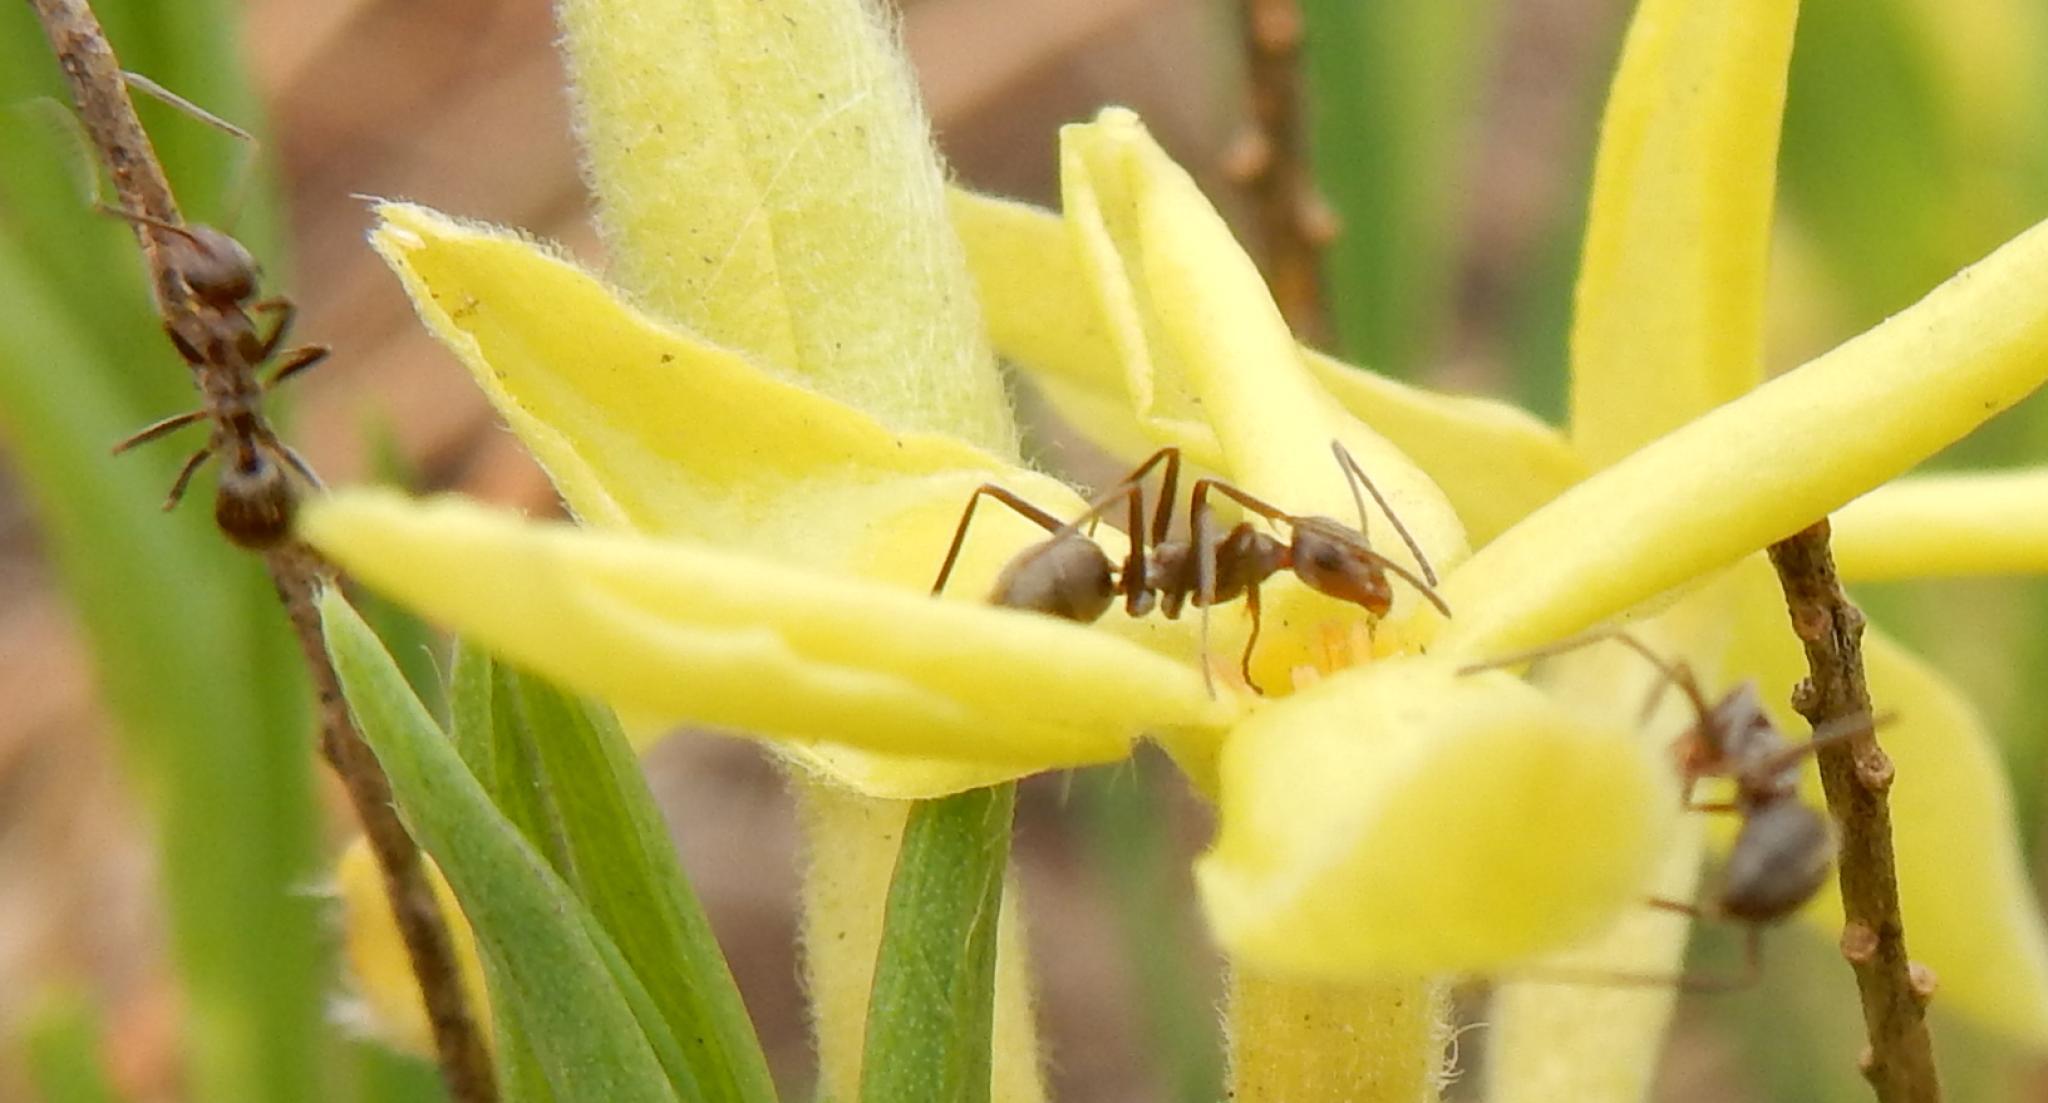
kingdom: Animalia
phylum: Arthropoda
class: Insecta
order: Hymenoptera
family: Formicidae
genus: Anoplolepis
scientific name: Anoplolepis rufescens
